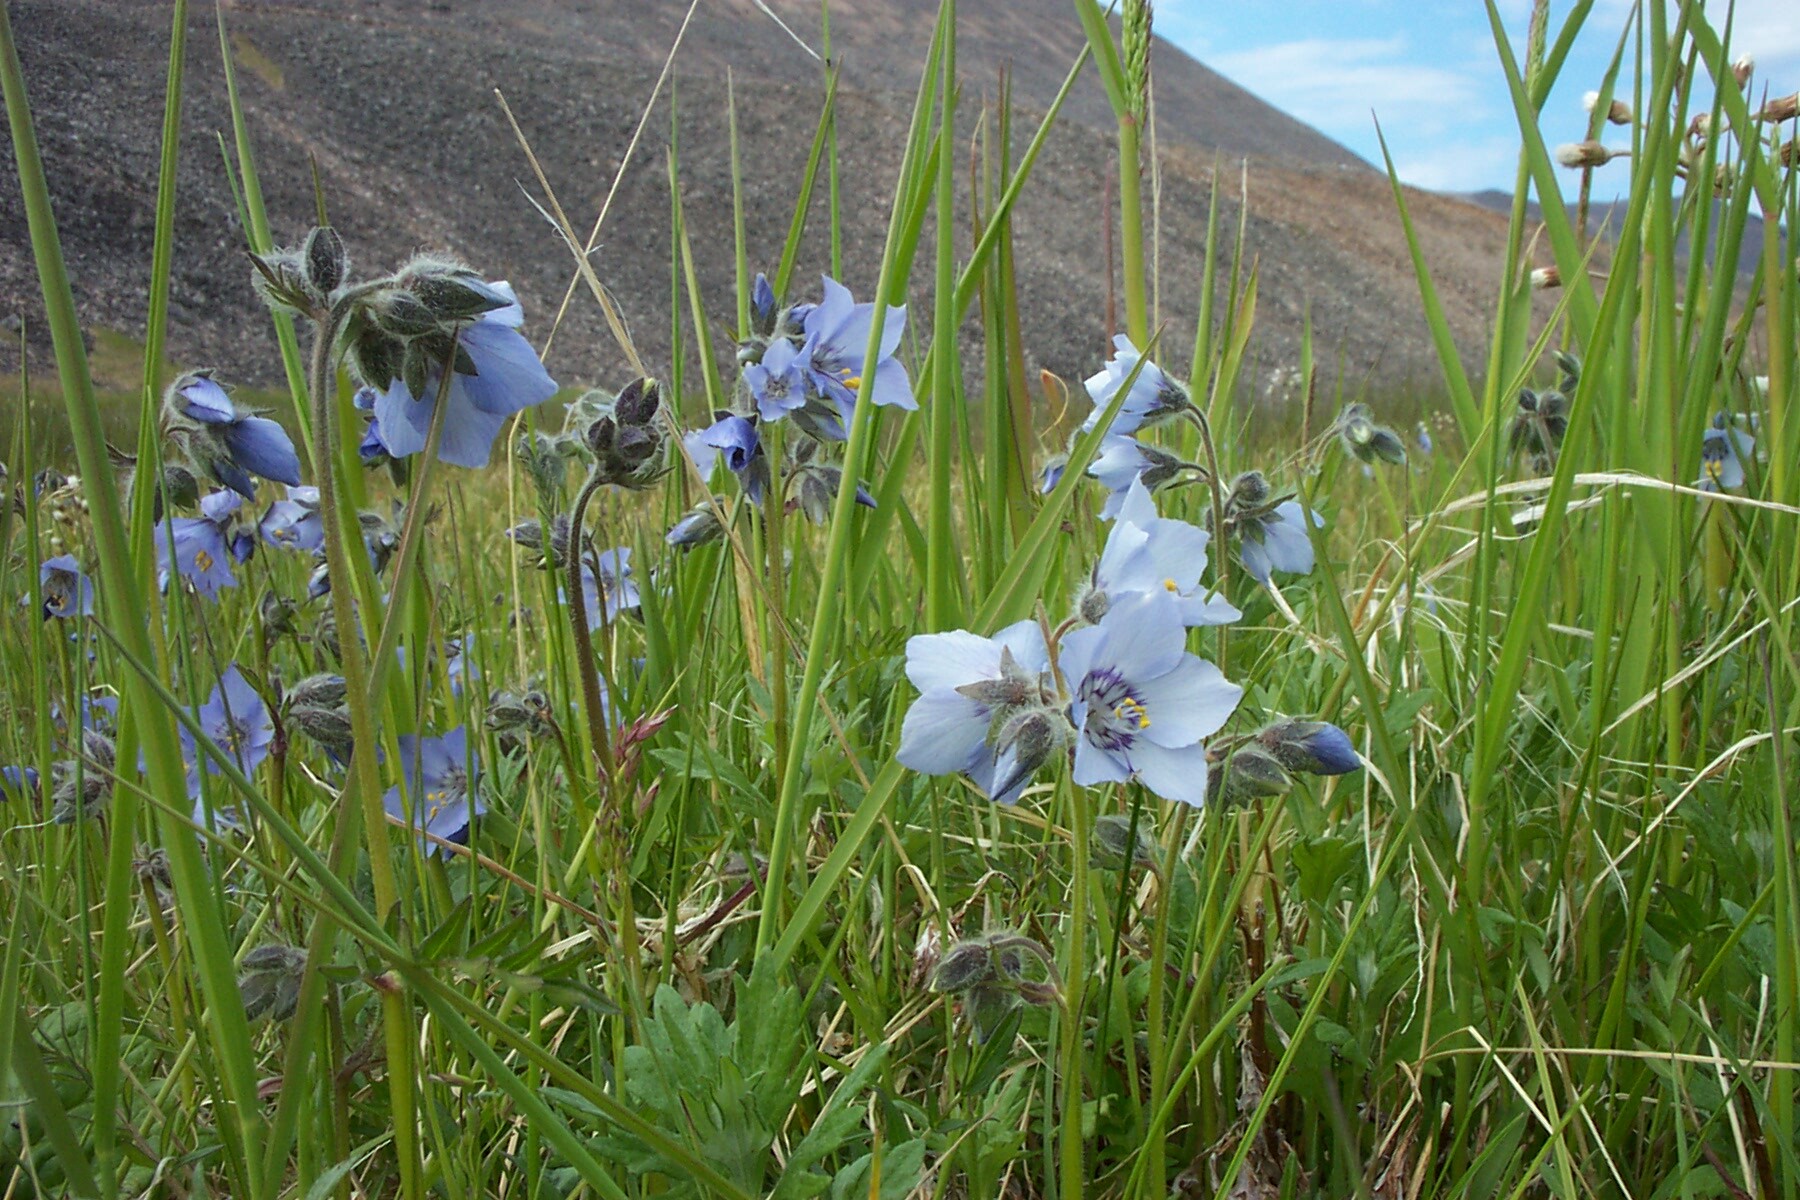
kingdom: Plantae
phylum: Tracheophyta
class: Magnoliopsida
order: Ericales
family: Polemoniaceae
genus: Polemonium
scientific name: Polemonium acutiflorum
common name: Tall jacob's-ladder
